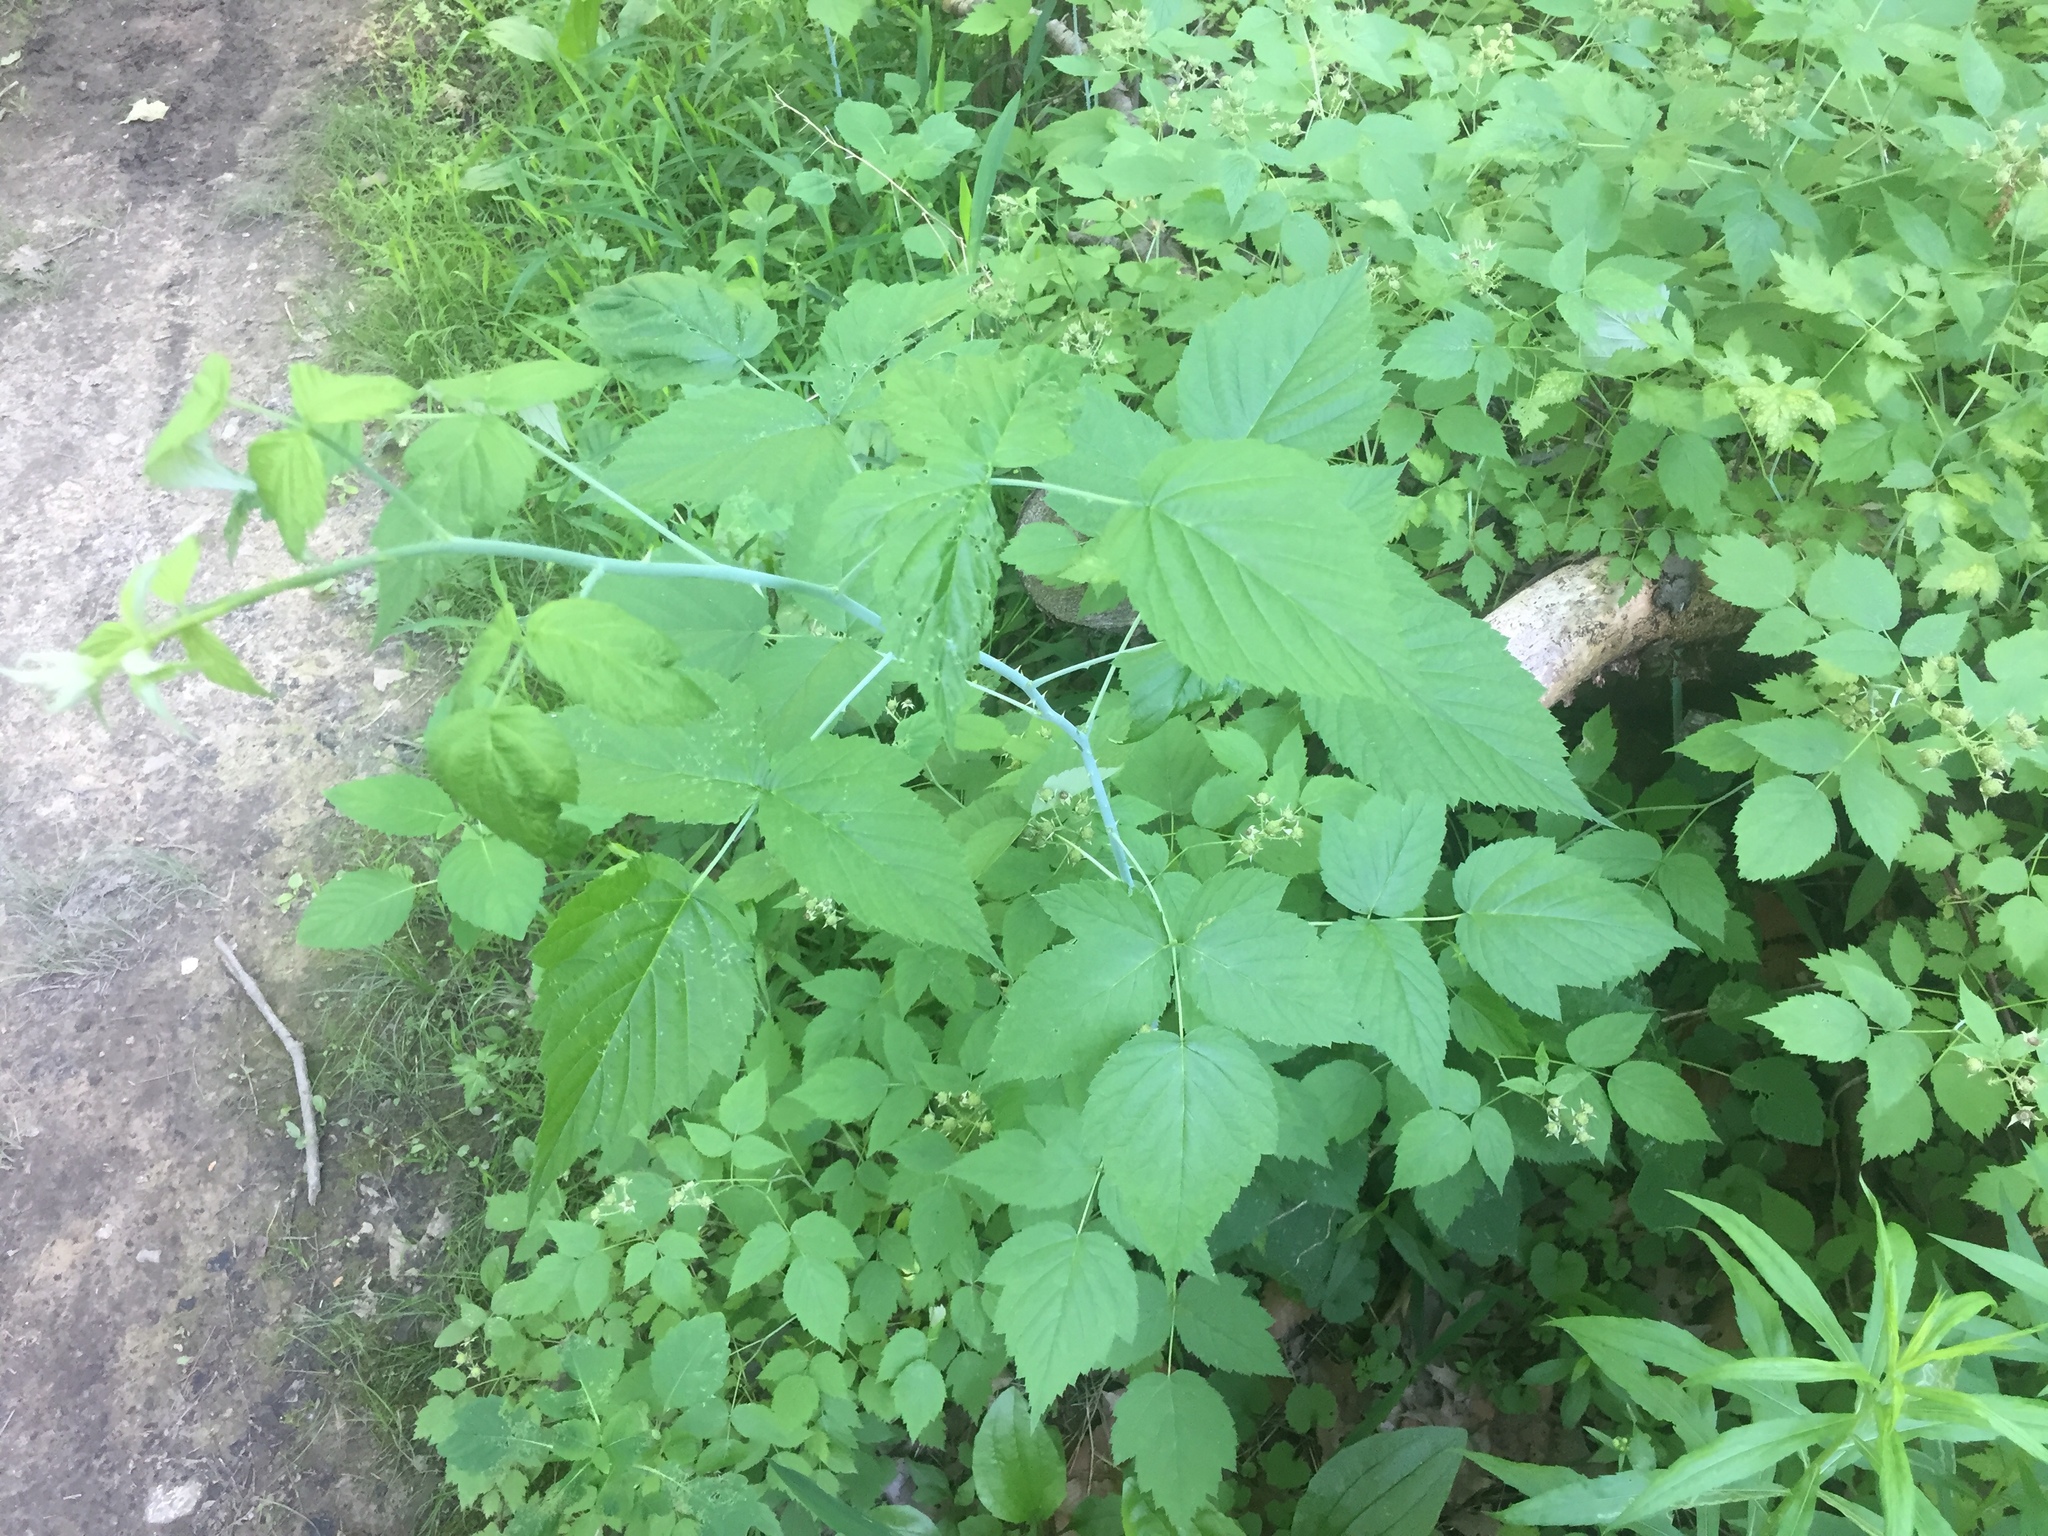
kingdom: Plantae
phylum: Tracheophyta
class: Magnoliopsida
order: Rosales
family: Rosaceae
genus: Rubus
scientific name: Rubus occidentalis
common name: Black raspberry
